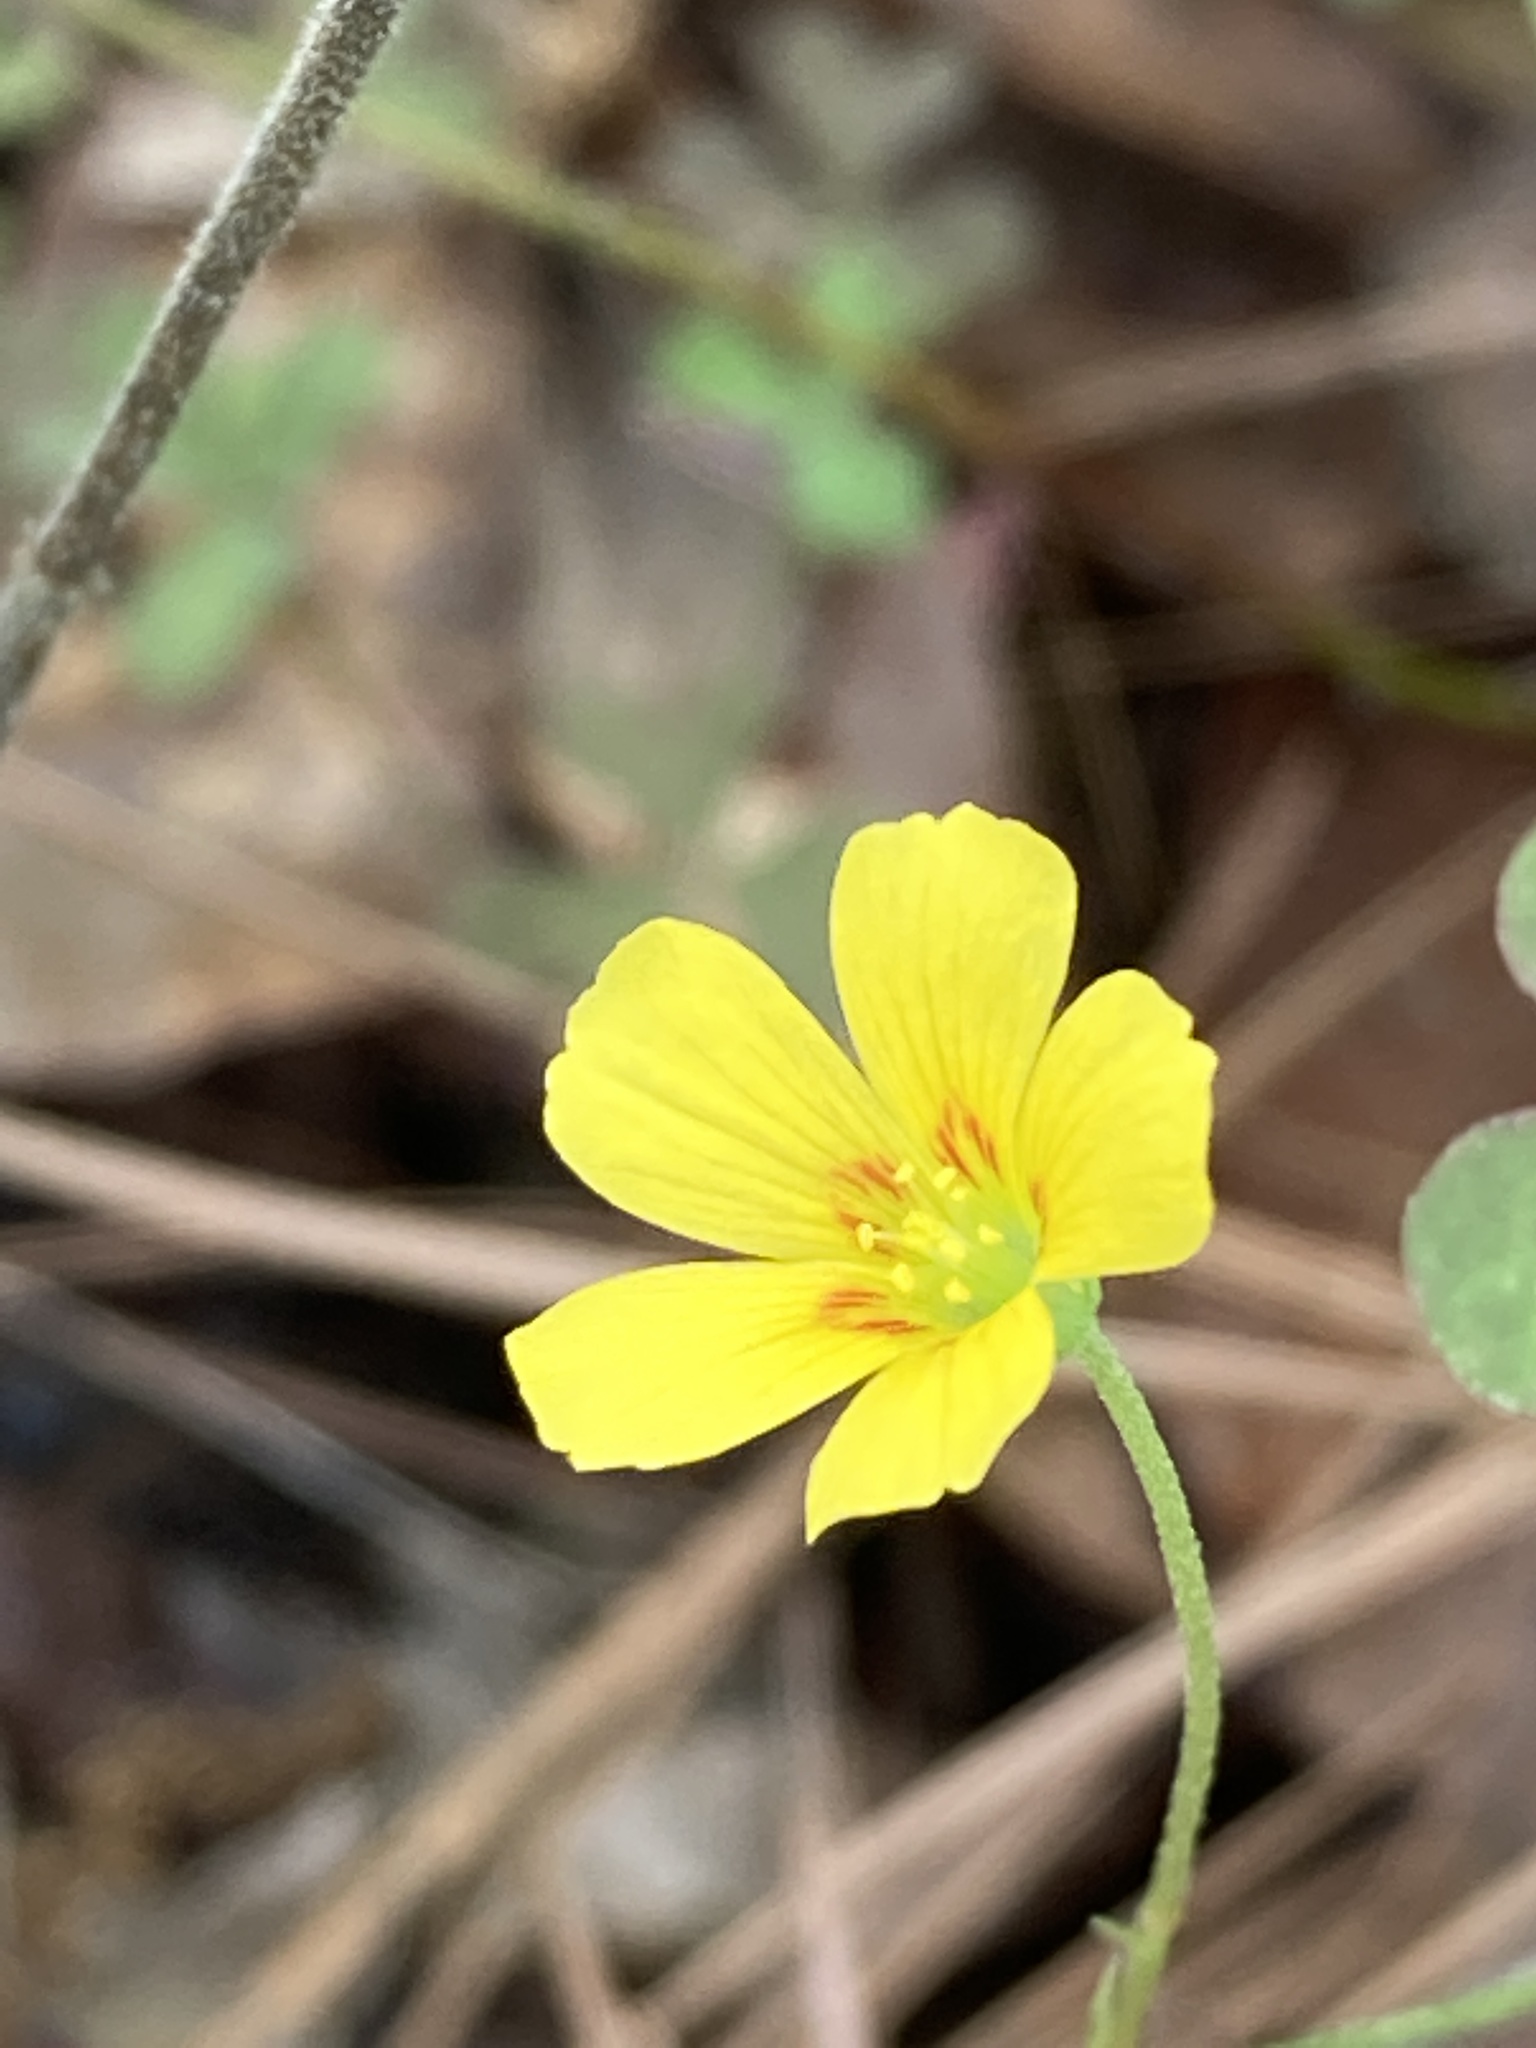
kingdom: Plantae
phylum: Tracheophyta
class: Magnoliopsida
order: Oxalidales
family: Oxalidaceae
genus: Oxalis
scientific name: Oxalis dillenii
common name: Sussex yellow-sorrel
